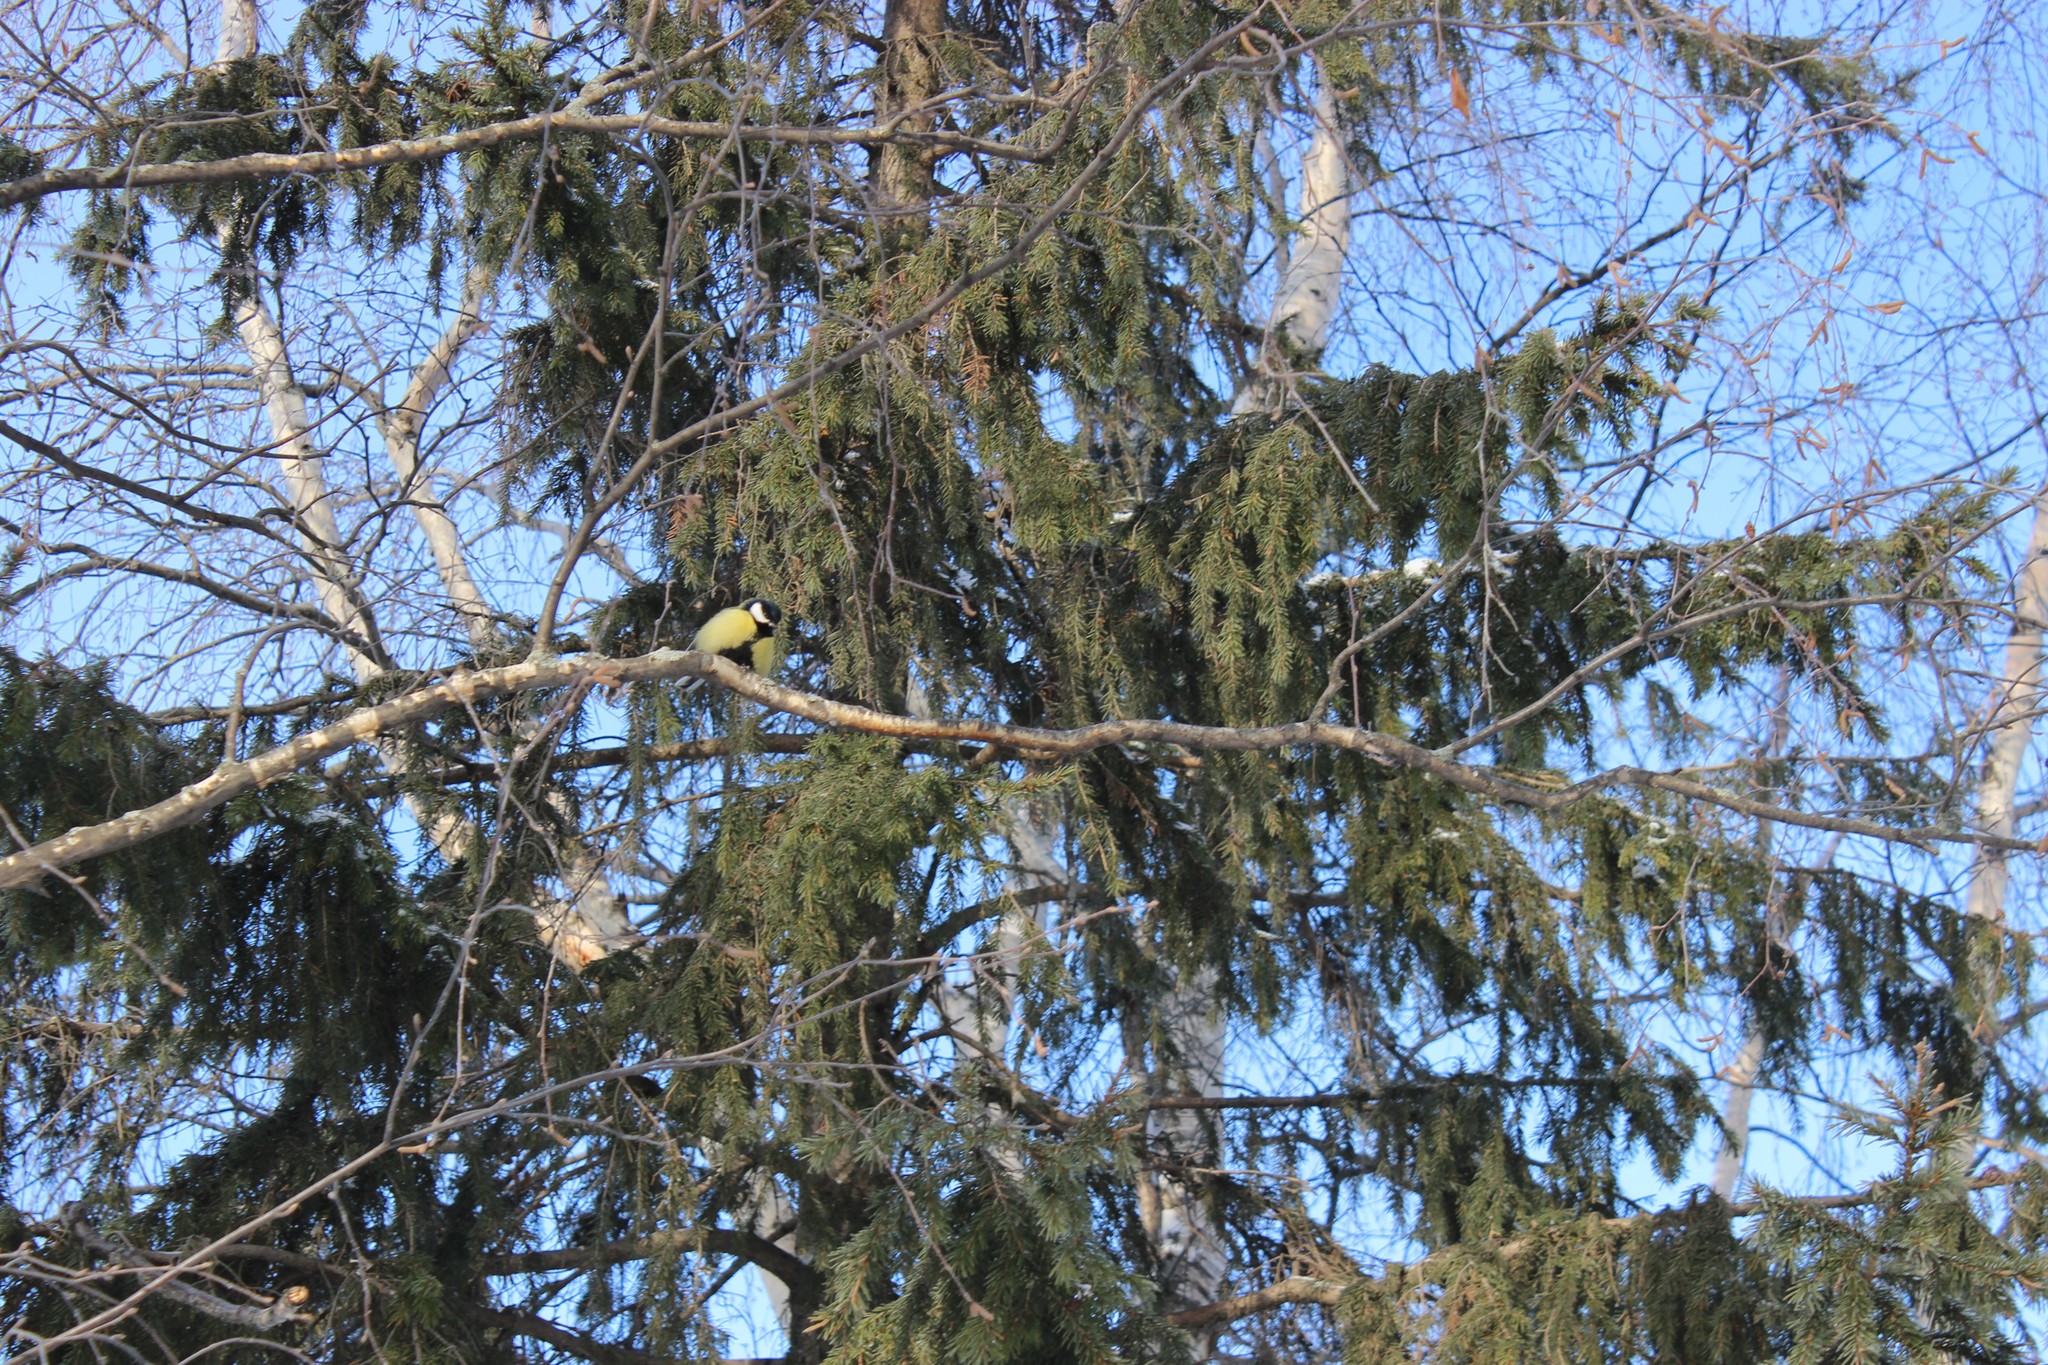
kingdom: Animalia
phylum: Chordata
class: Aves
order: Passeriformes
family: Paridae
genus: Parus
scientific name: Parus major
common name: Great tit
